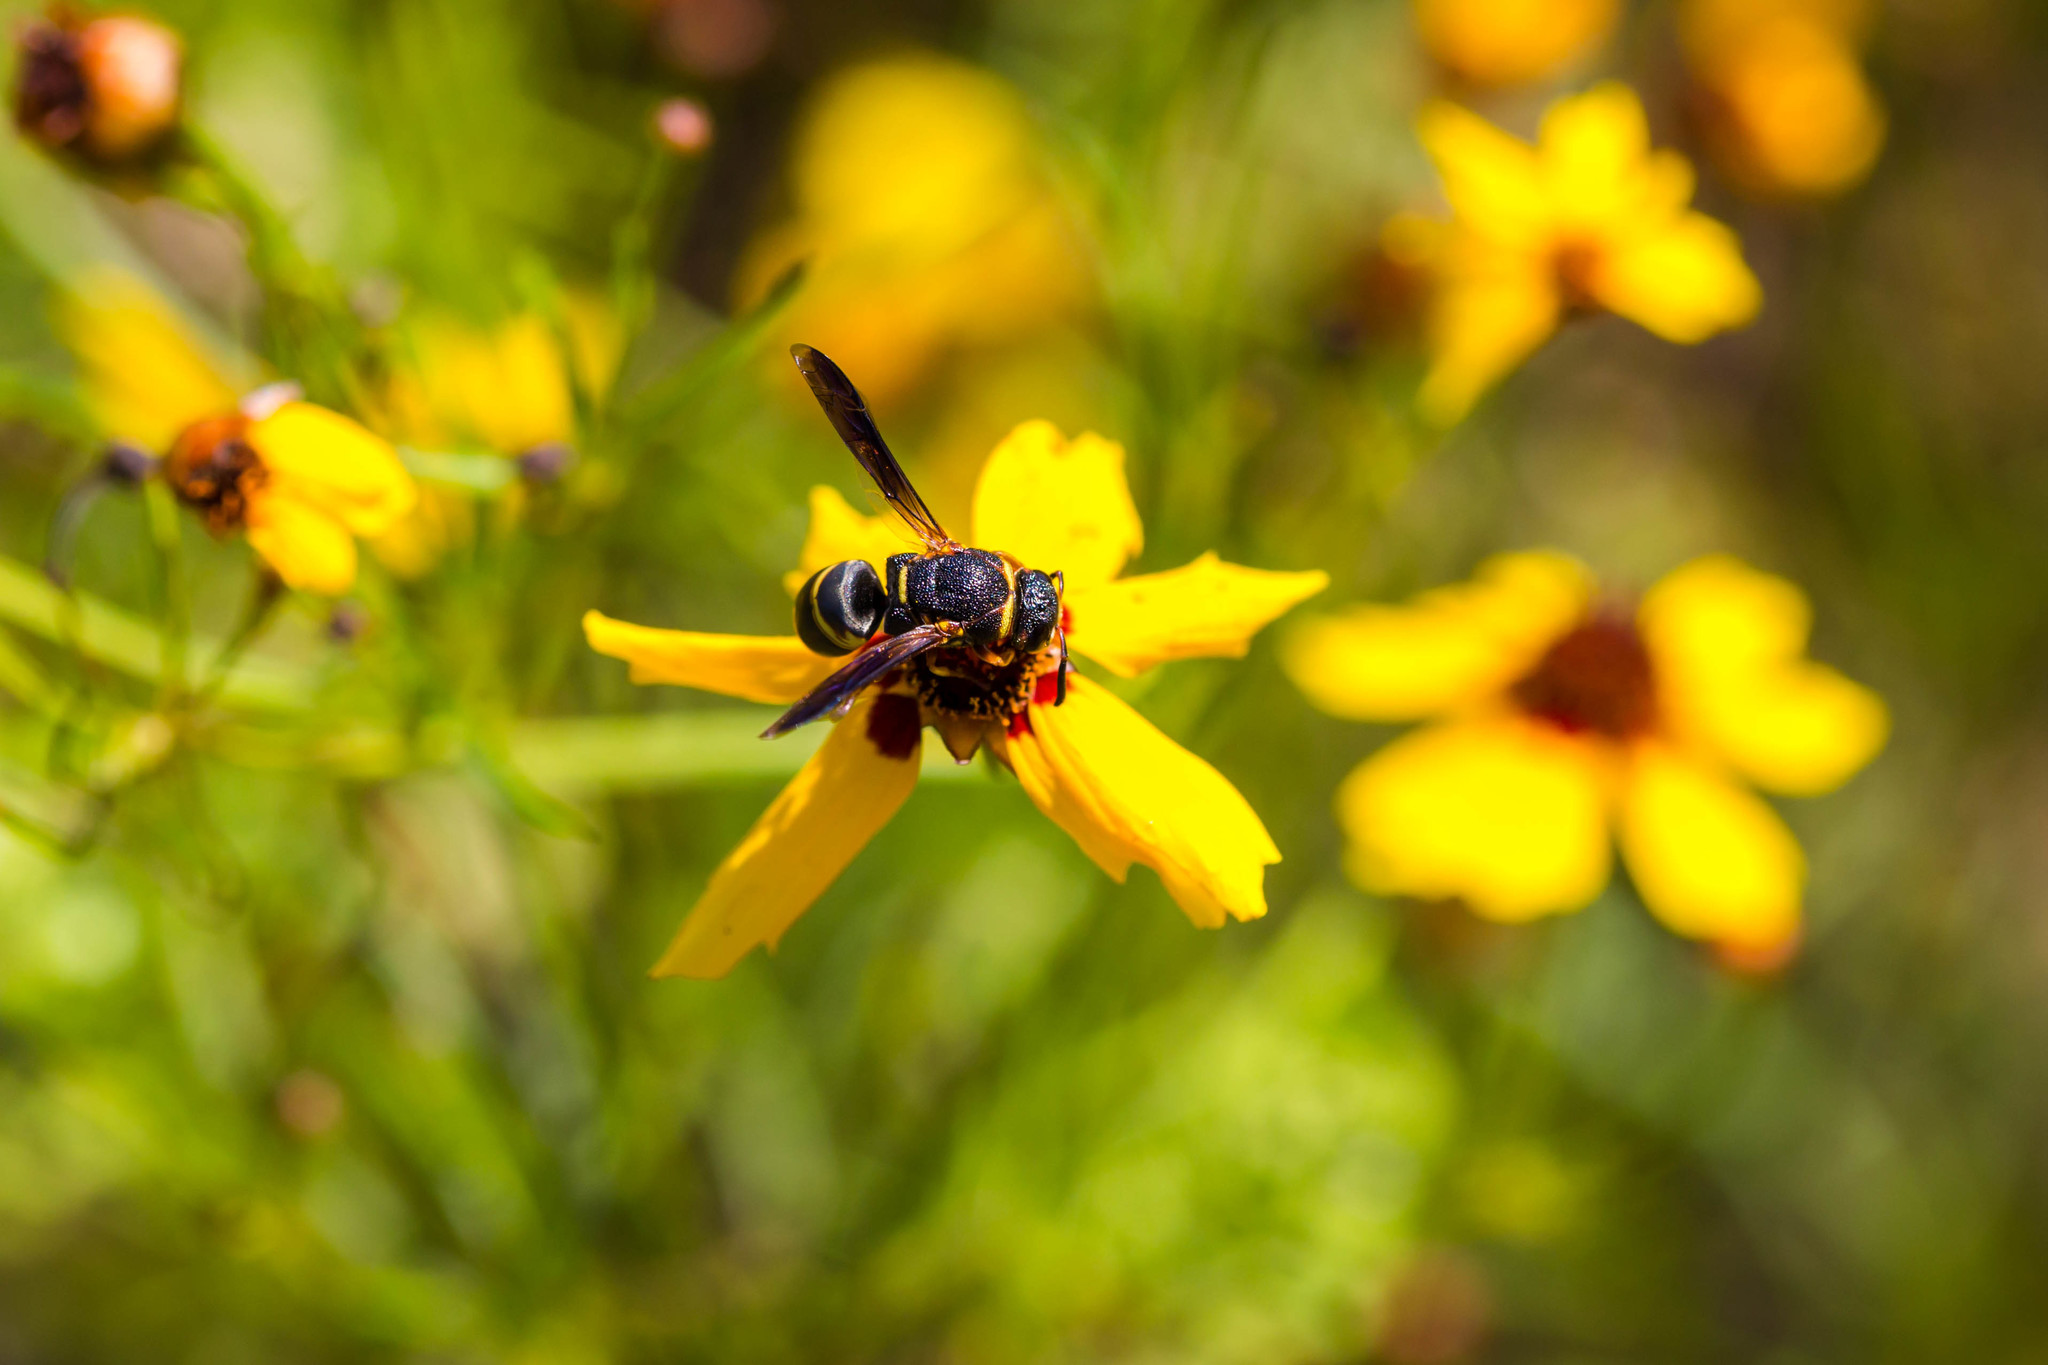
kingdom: Animalia
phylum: Arthropoda
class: Insecta
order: Hymenoptera
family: Eumenidae
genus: Euodynerus
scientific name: Euodynerus hidalgo
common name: Wasp
